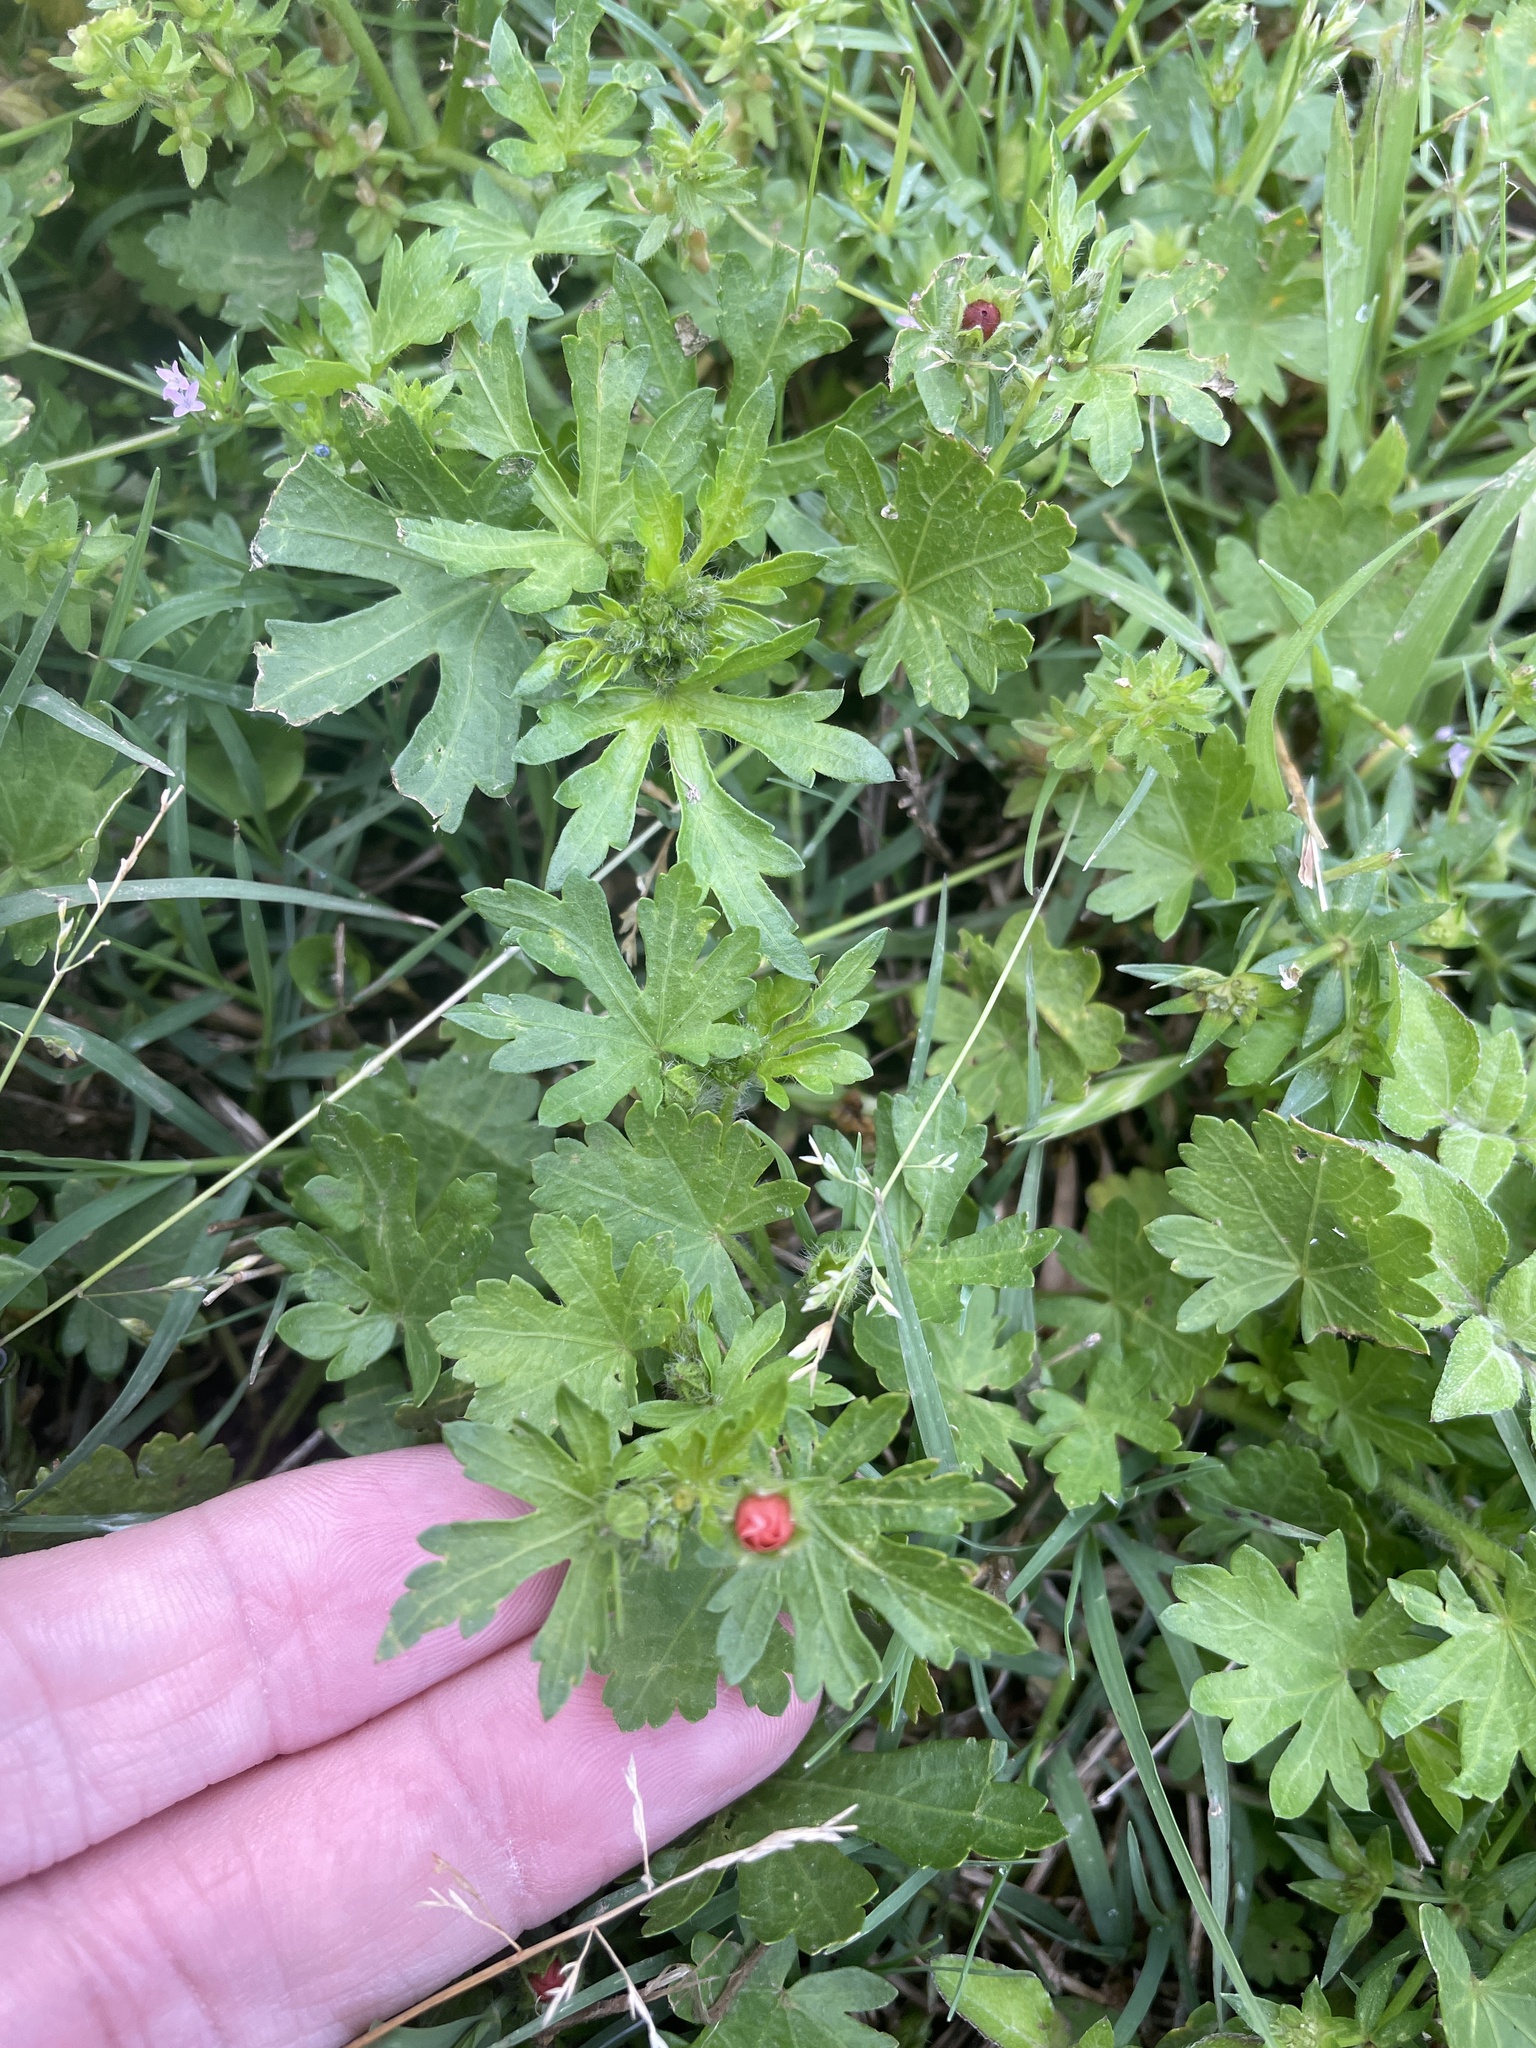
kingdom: Plantae
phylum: Tracheophyta
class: Magnoliopsida
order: Malvales
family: Malvaceae
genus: Modiola
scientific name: Modiola caroliniana
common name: Carolina bristlemallow
